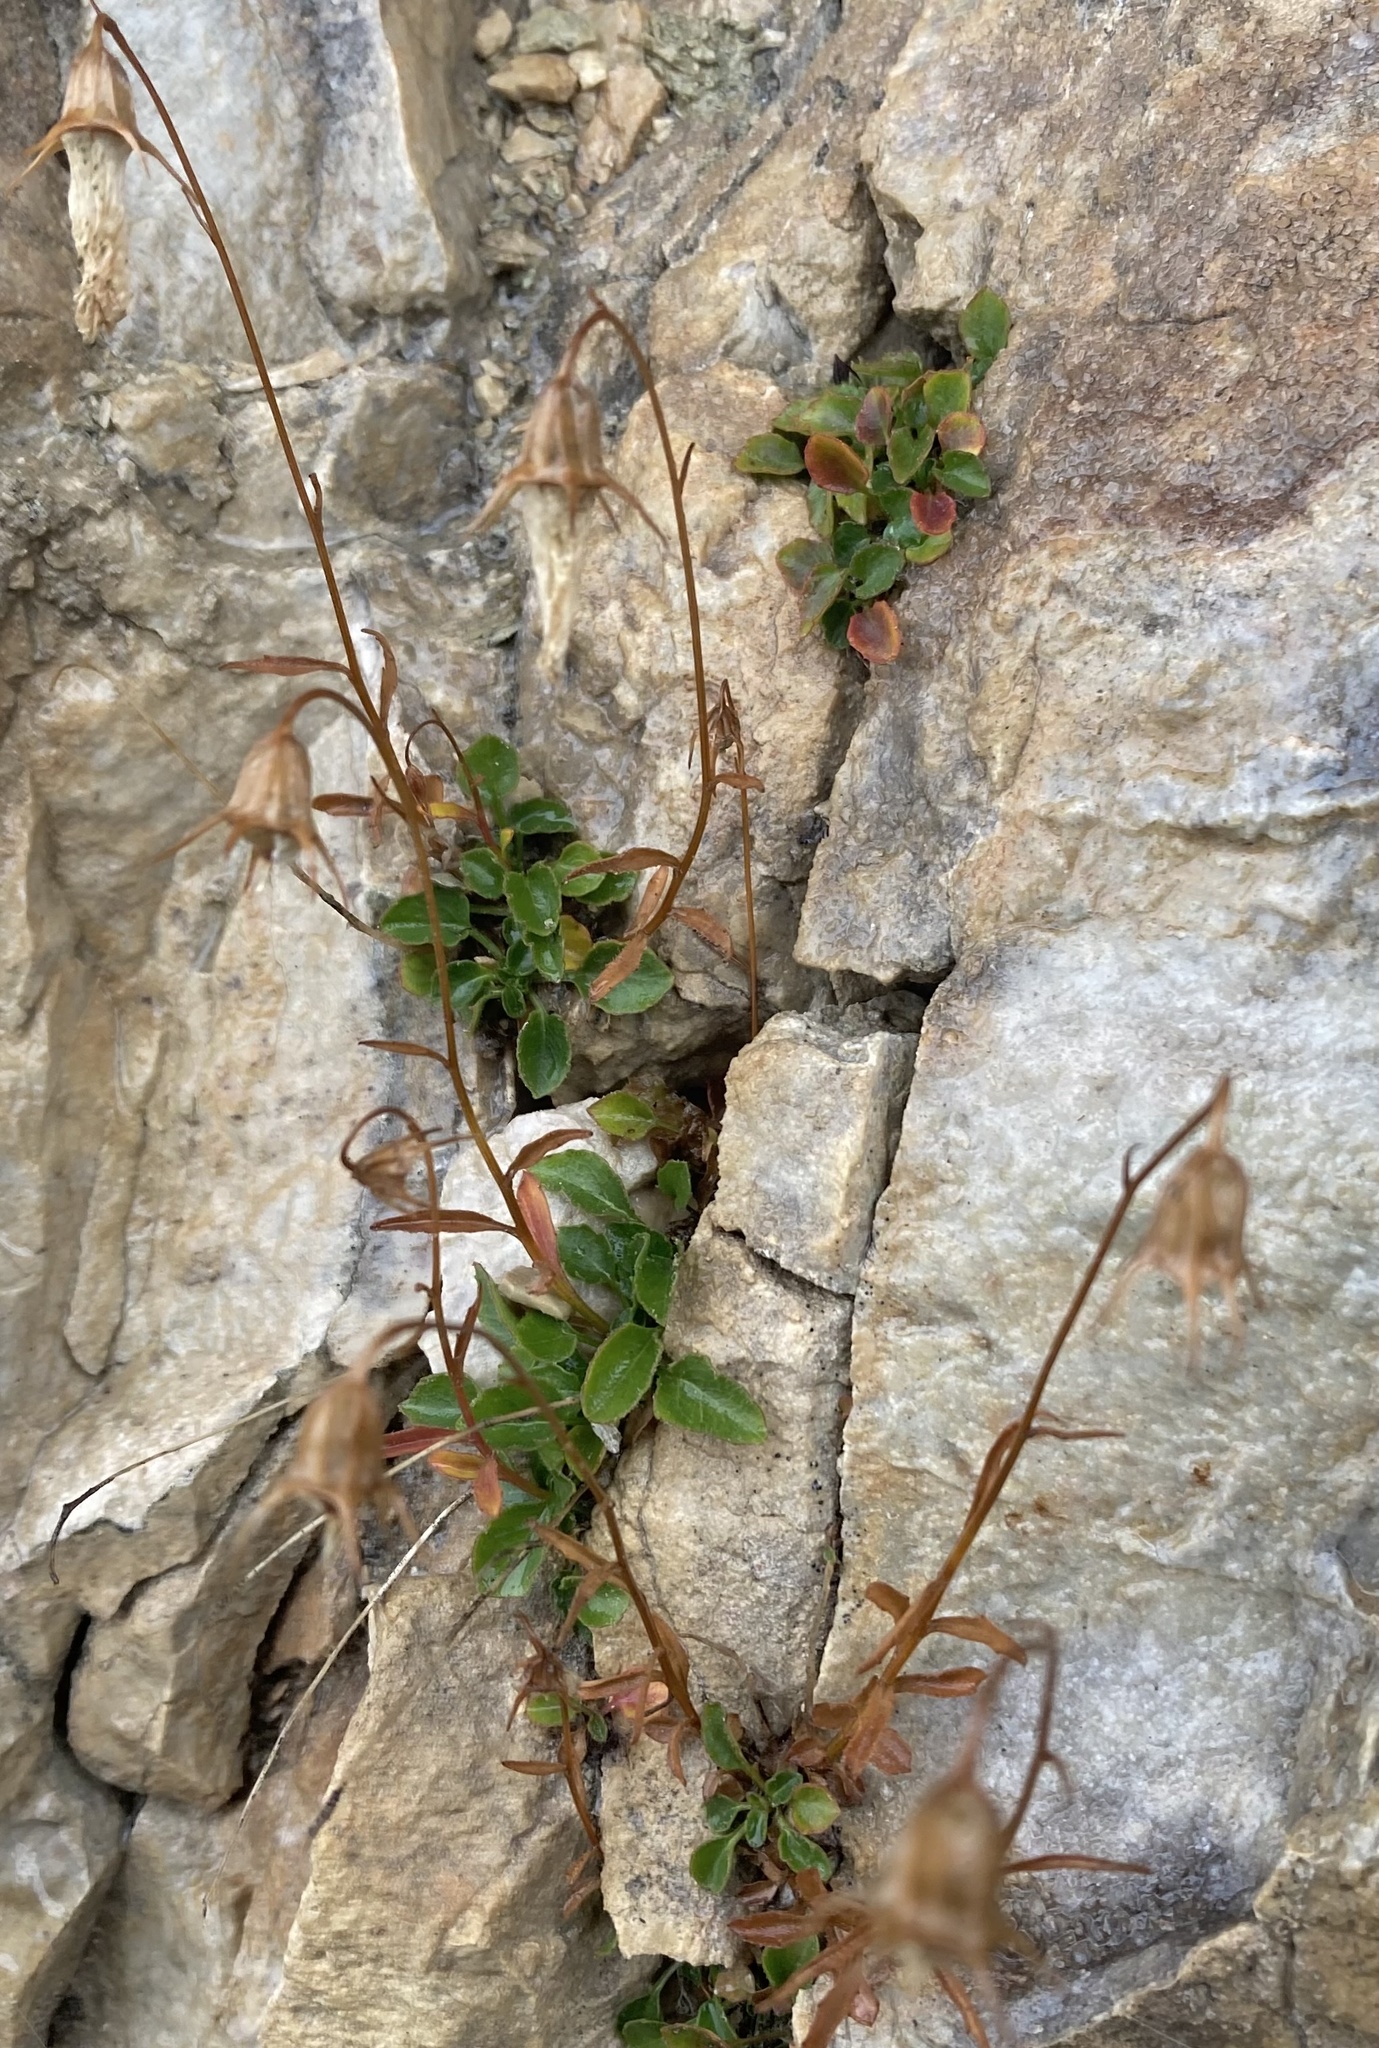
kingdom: Plantae
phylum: Tracheophyta
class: Magnoliopsida
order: Asterales
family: Campanulaceae
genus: Campanula
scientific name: Campanula cochleariifolia
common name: Fairies'-thimbles
